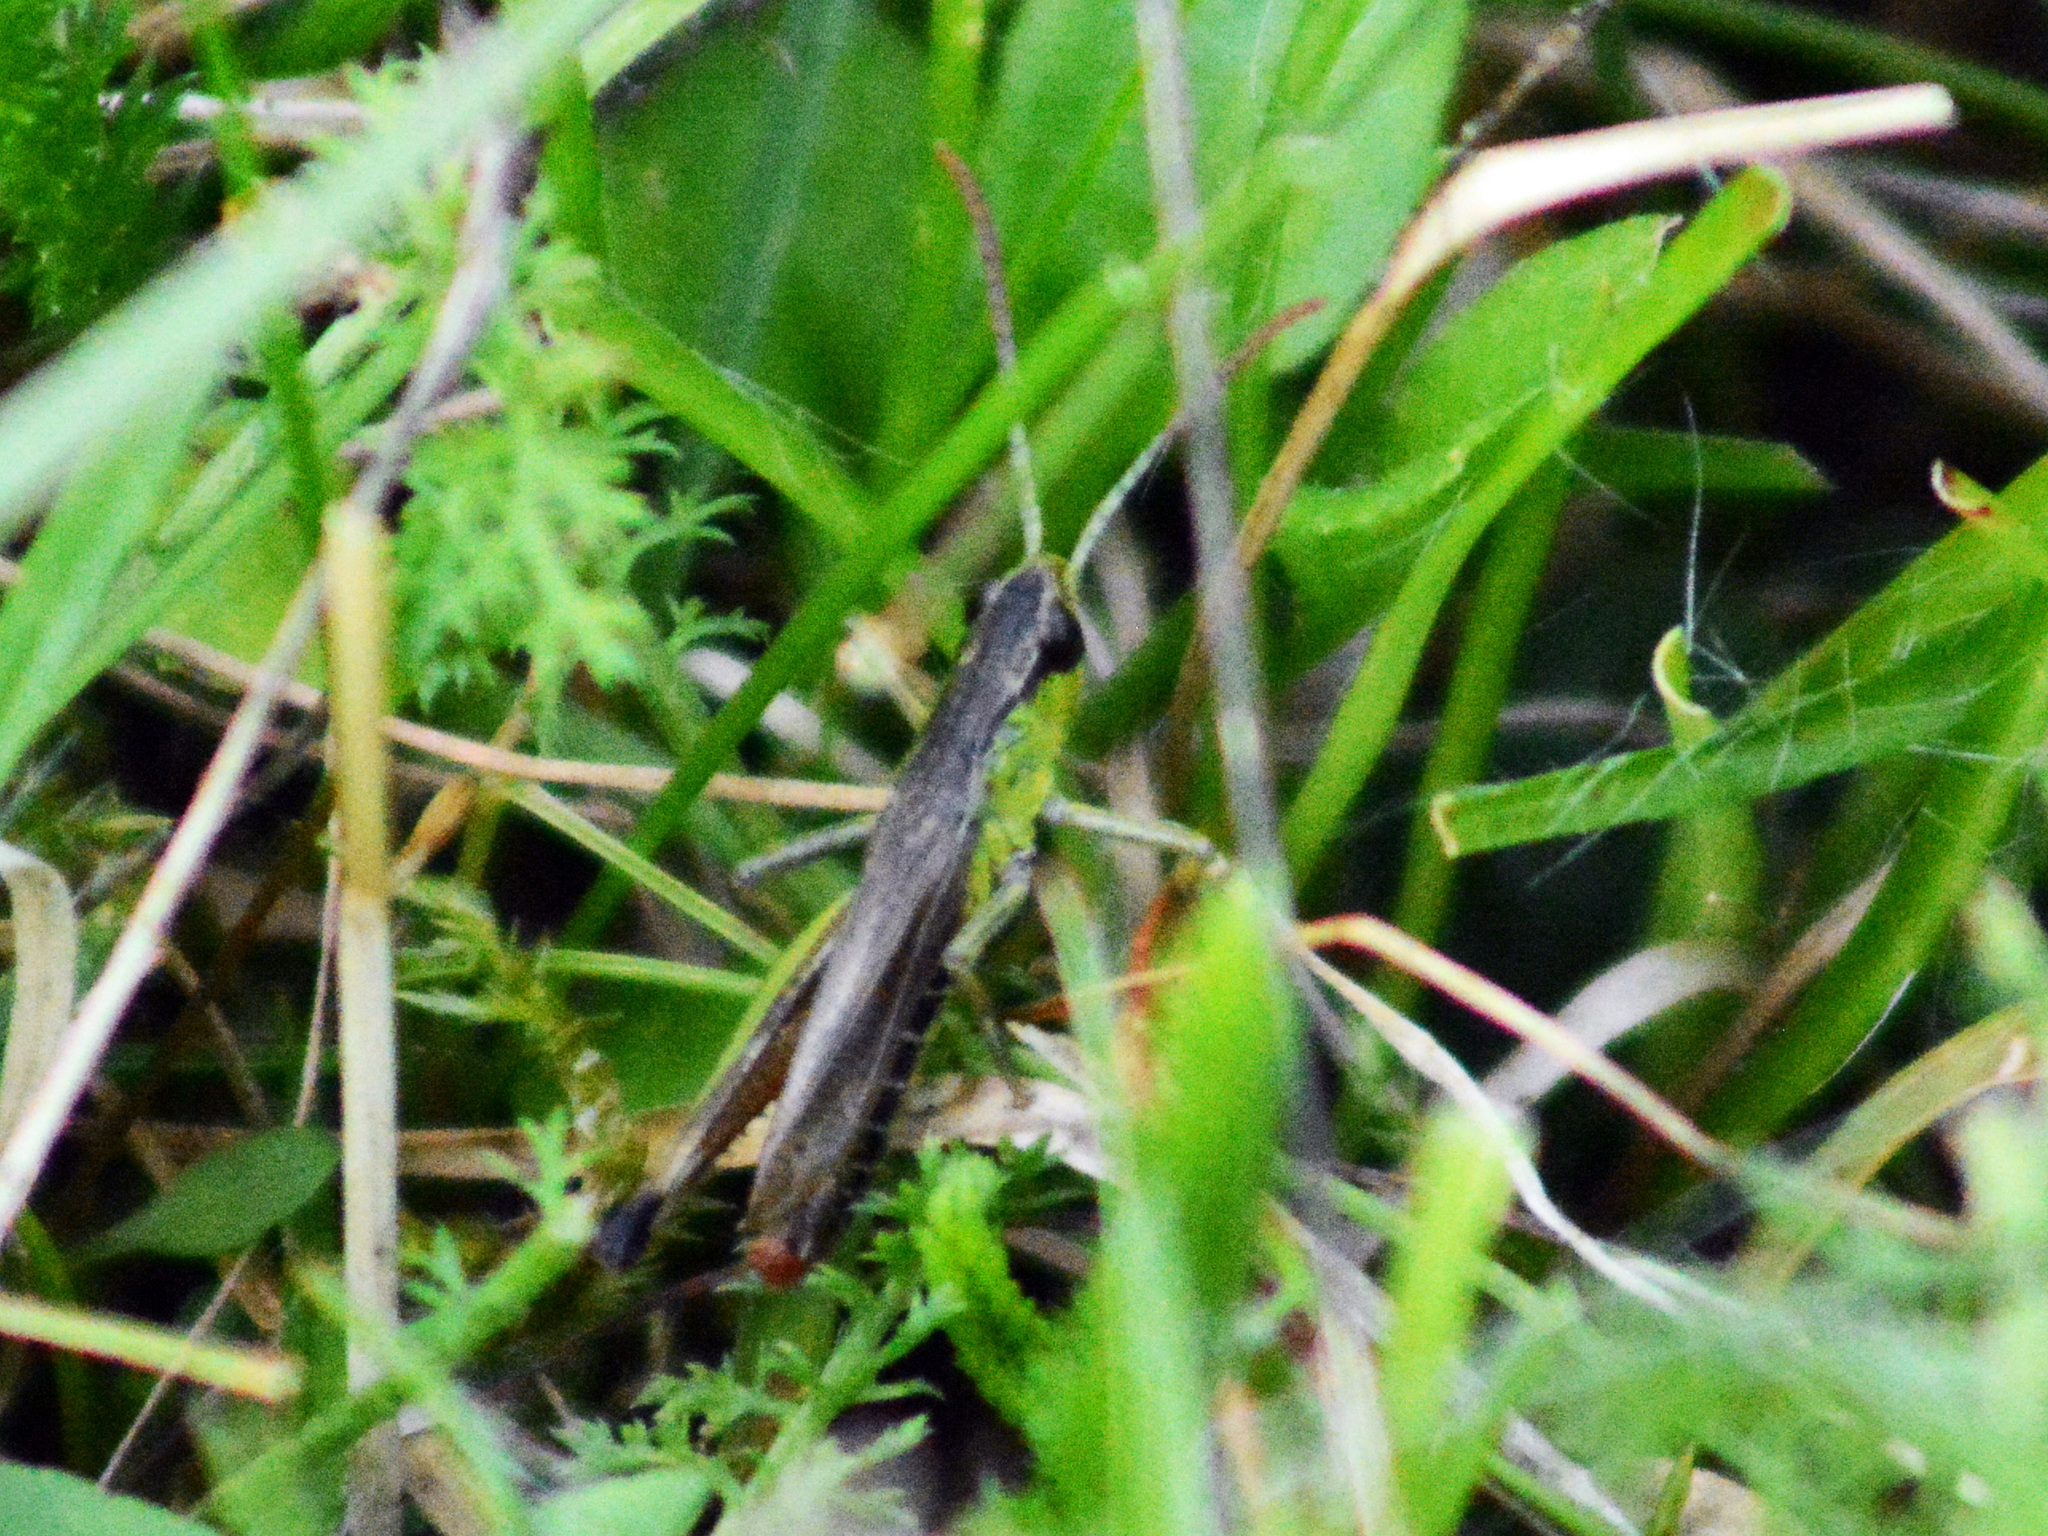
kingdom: Animalia
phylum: Arthropoda
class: Insecta
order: Orthoptera
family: Acrididae
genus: Pseudochorthippus
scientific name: Pseudochorthippus parallelus
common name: Meadow grasshopper
